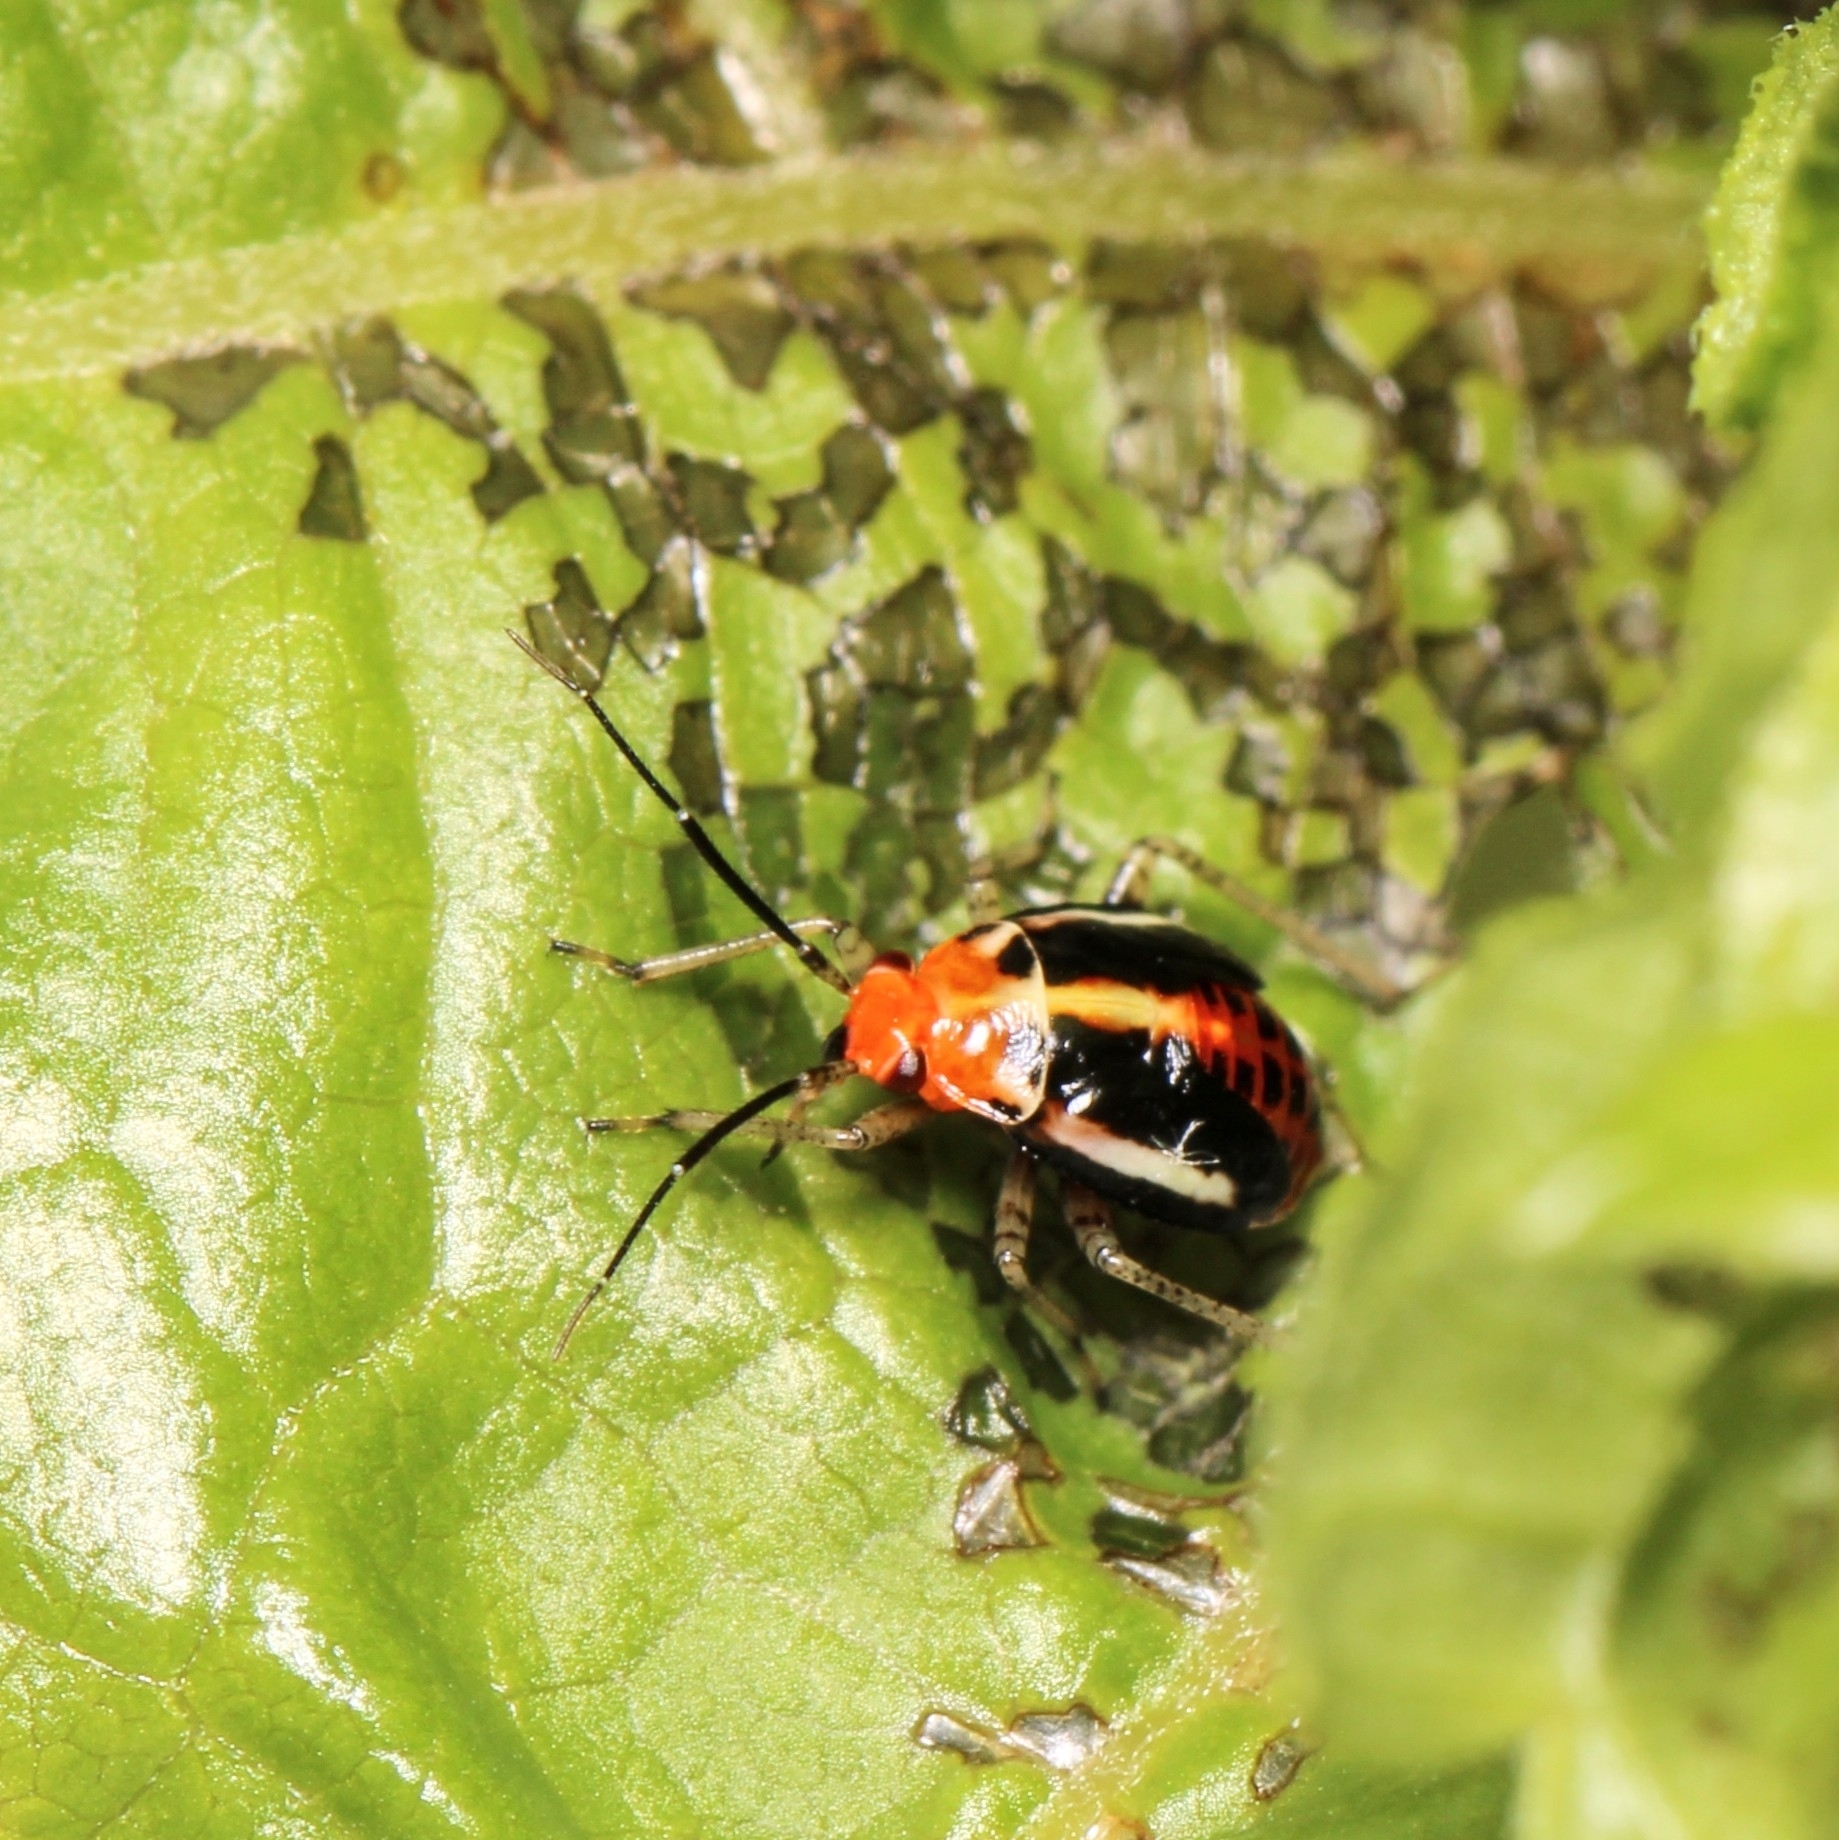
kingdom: Animalia
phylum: Arthropoda
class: Insecta
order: Hemiptera
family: Miridae
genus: Poecilocapsus
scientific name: Poecilocapsus lineatus
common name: Four-lined plant bug
